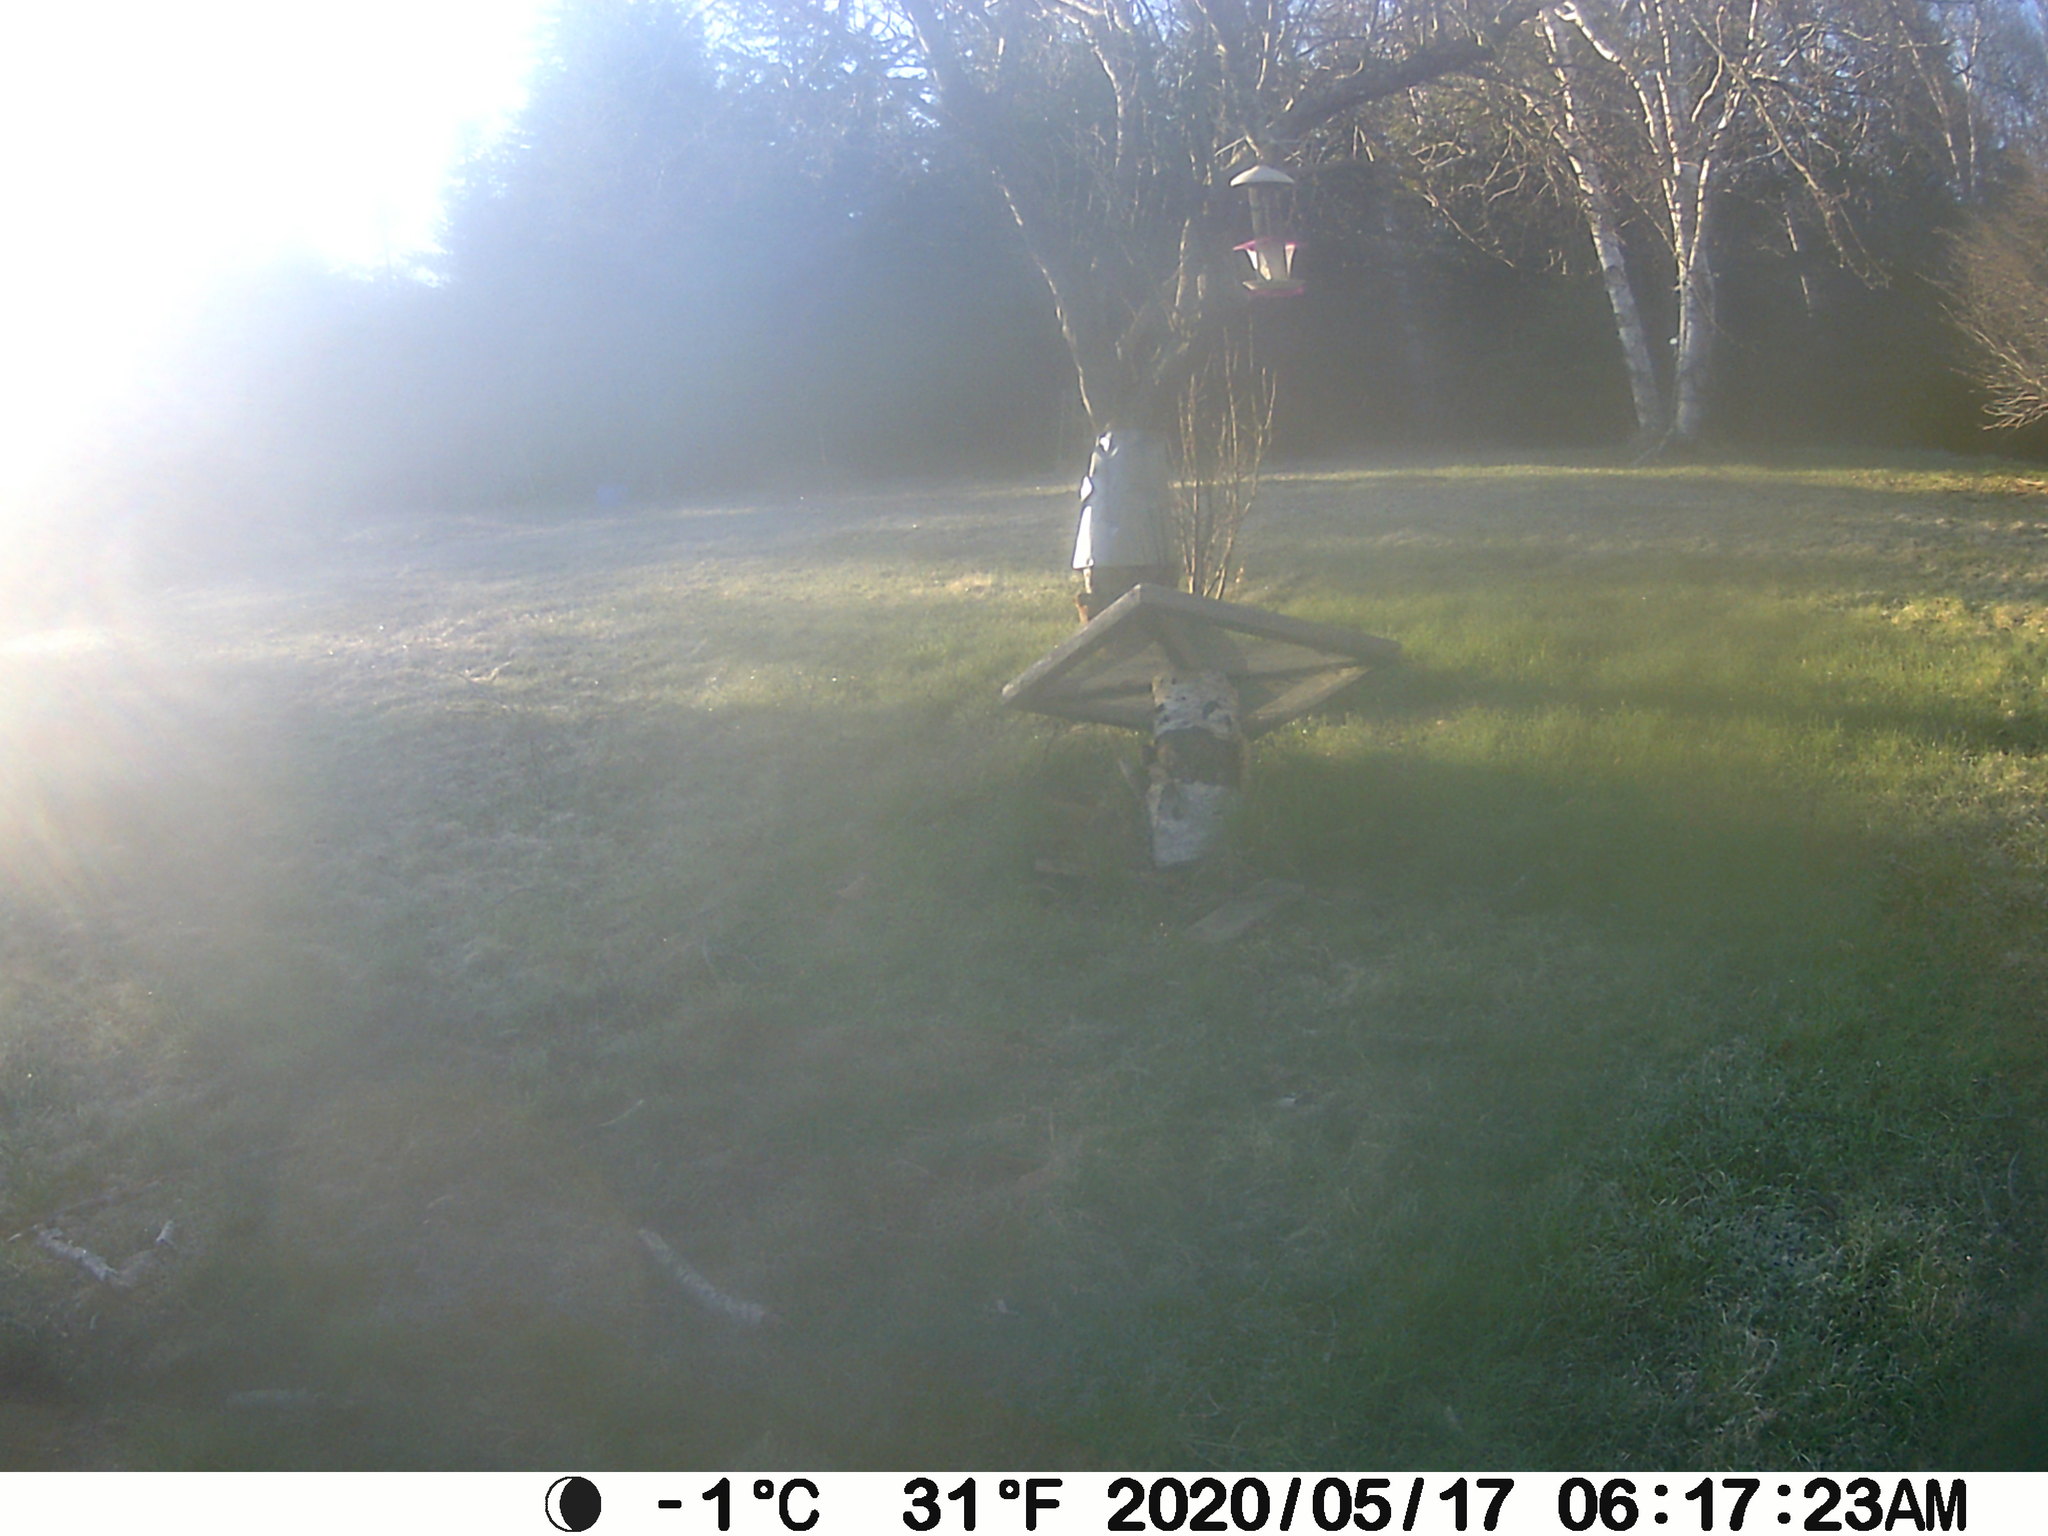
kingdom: Animalia
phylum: Chordata
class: Mammalia
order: Rodentia
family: Sciuridae
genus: Tamiasciurus
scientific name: Tamiasciurus hudsonicus
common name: Red squirrel
